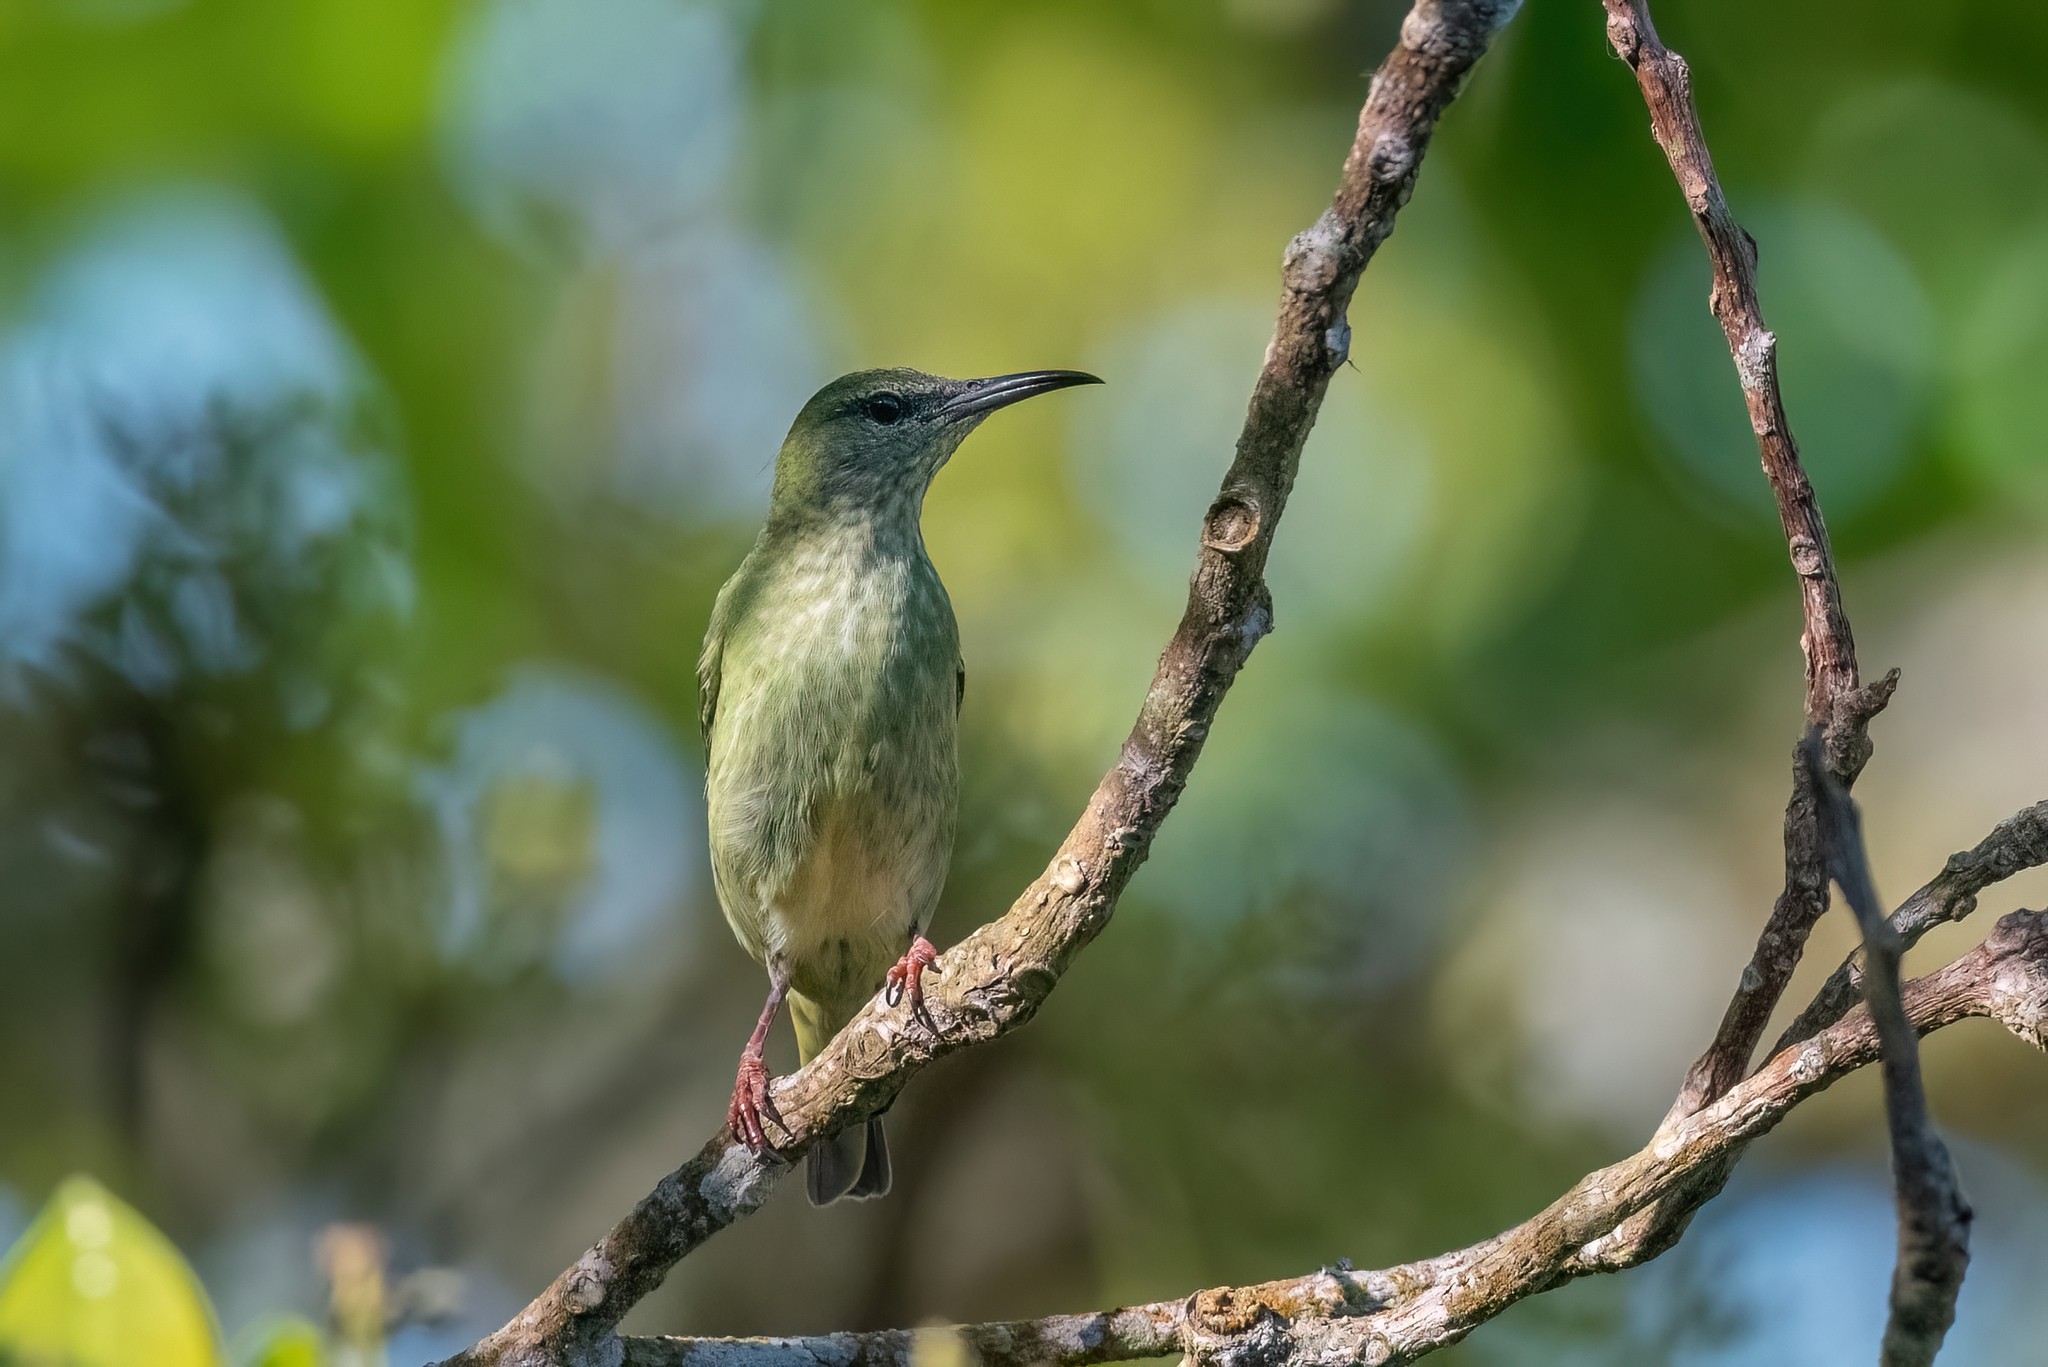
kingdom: Animalia
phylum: Chordata
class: Aves
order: Passeriformes
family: Thraupidae
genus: Cyanerpes
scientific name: Cyanerpes cyaneus
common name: Red-legged honeycreeper
